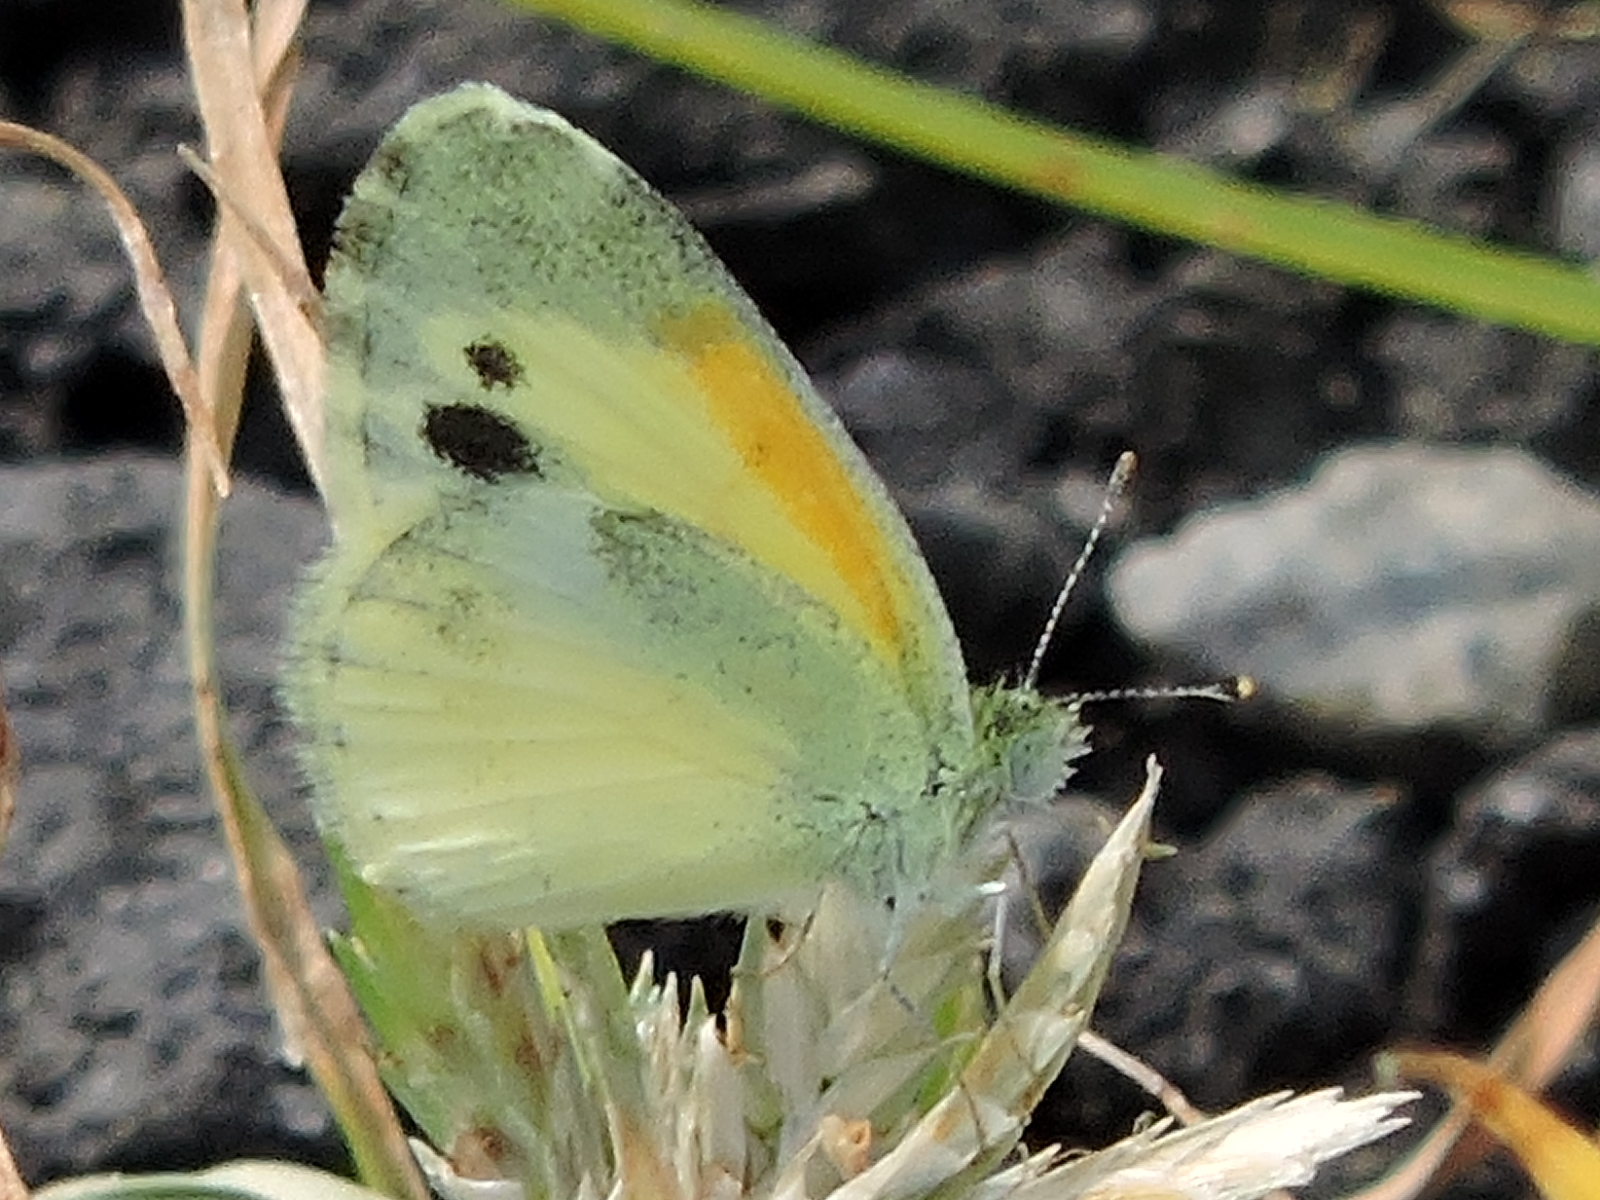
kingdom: Animalia
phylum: Arthropoda
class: Insecta
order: Lepidoptera
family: Pieridae
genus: Nathalis
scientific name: Nathalis iole
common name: Dainty sulphur
